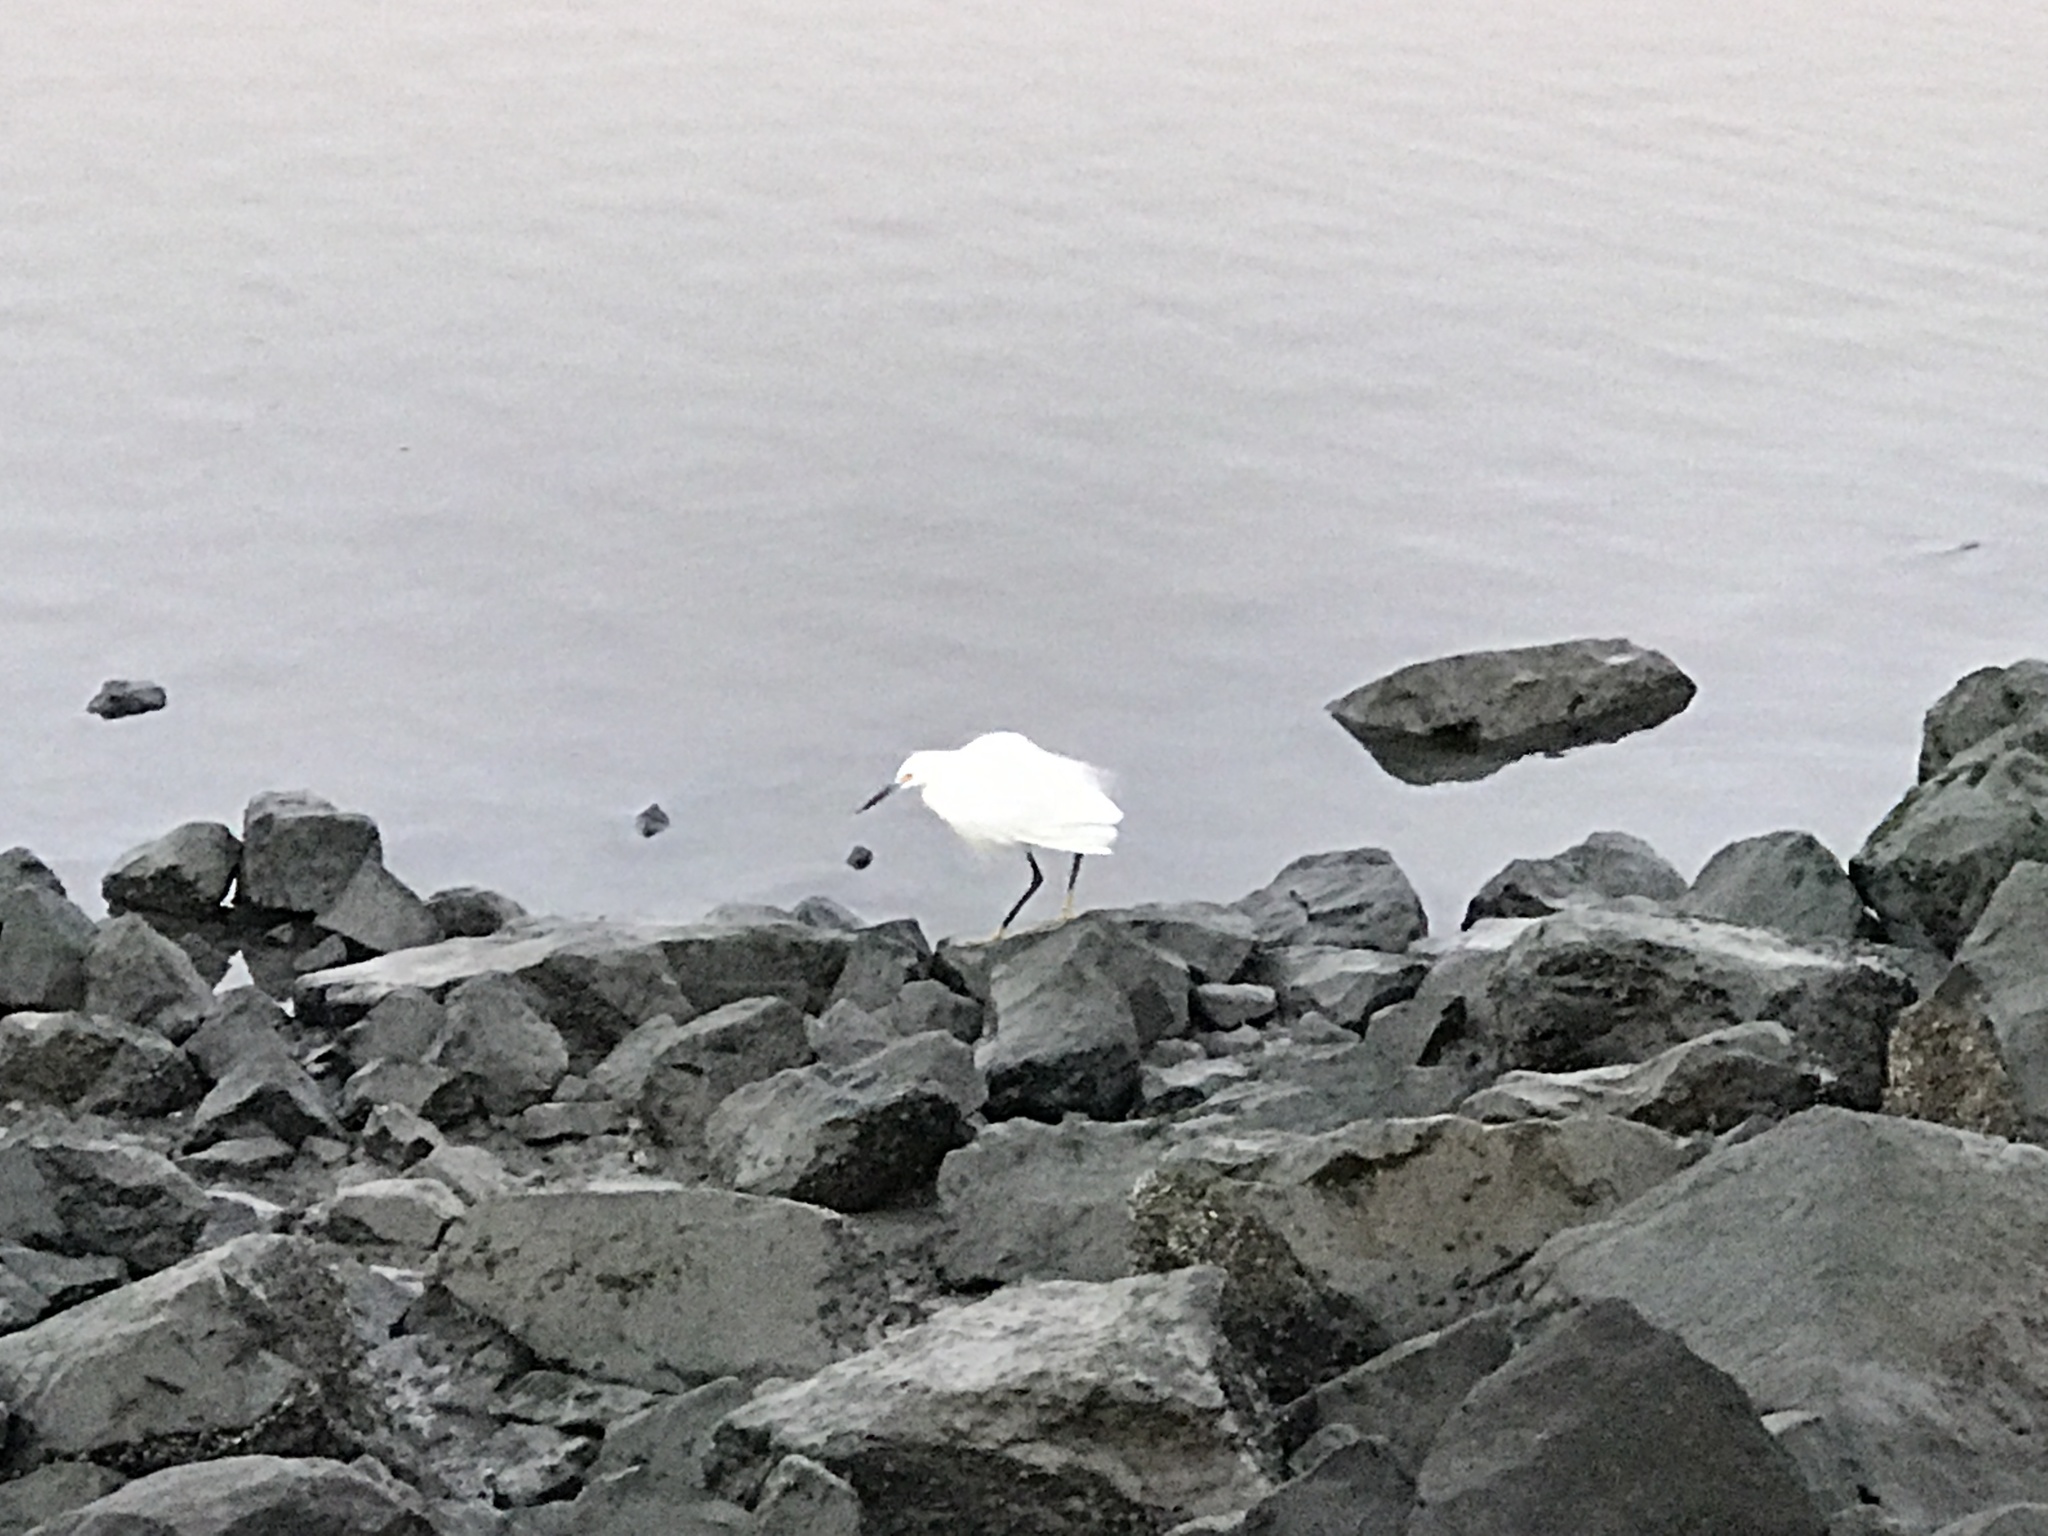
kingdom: Animalia
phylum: Chordata
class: Aves
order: Pelecaniformes
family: Ardeidae
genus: Egretta
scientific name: Egretta thula
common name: Snowy egret
